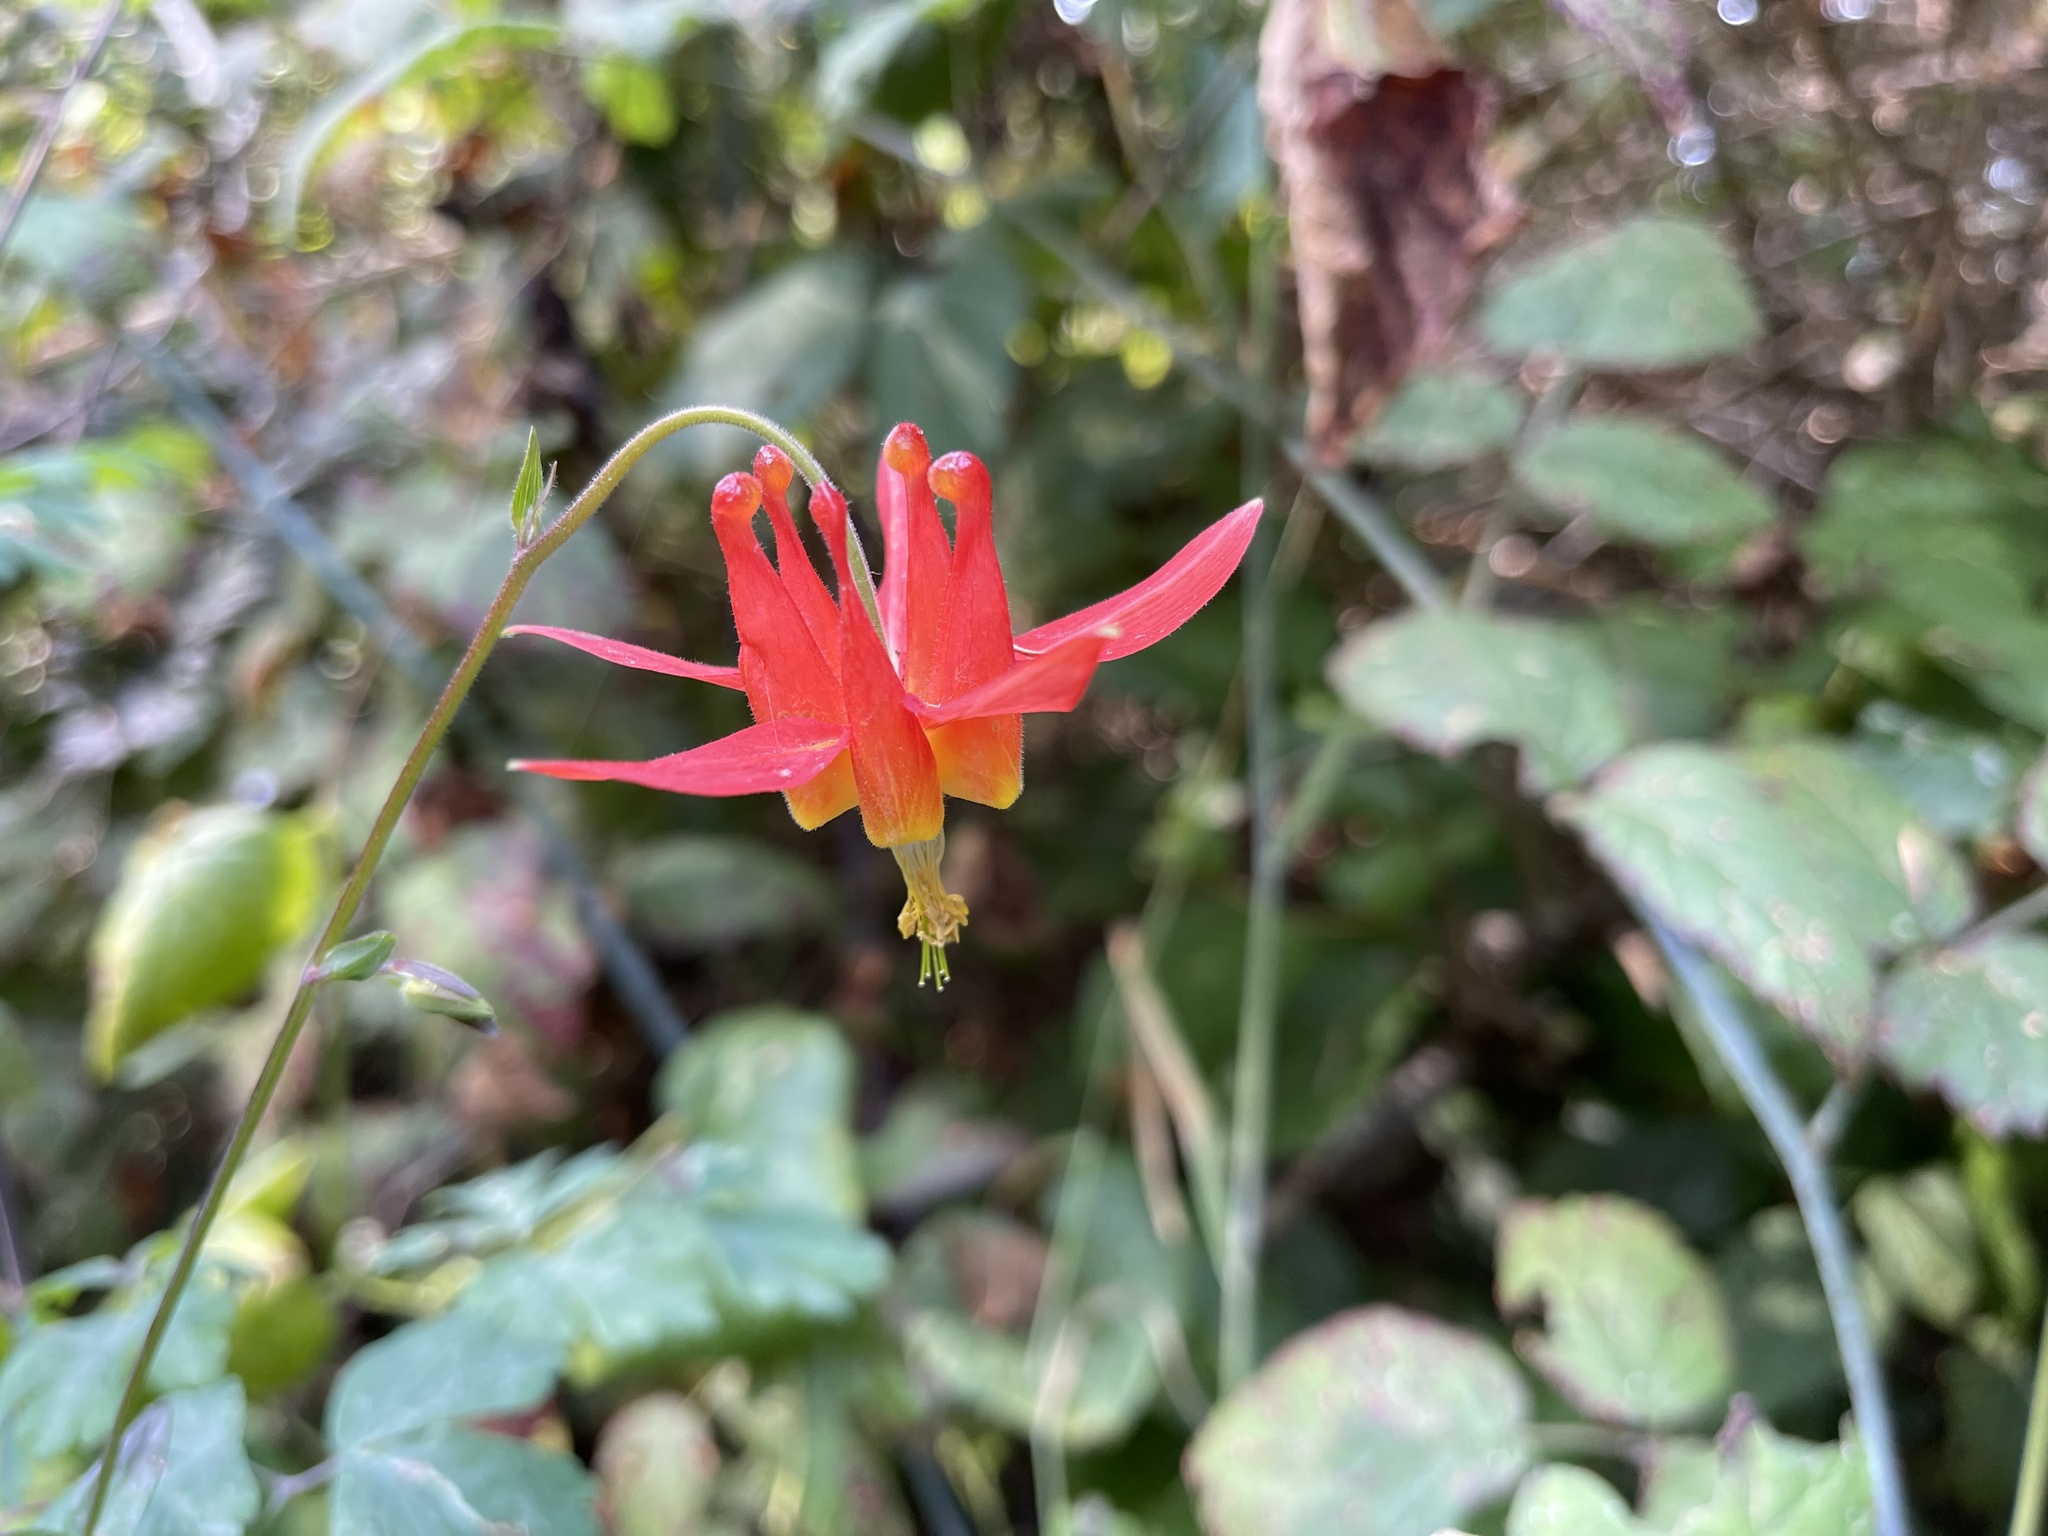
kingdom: Plantae
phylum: Tracheophyta
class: Magnoliopsida
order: Ranunculales
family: Ranunculaceae
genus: Aquilegia
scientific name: Aquilegia formosa
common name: Sitka columbine
